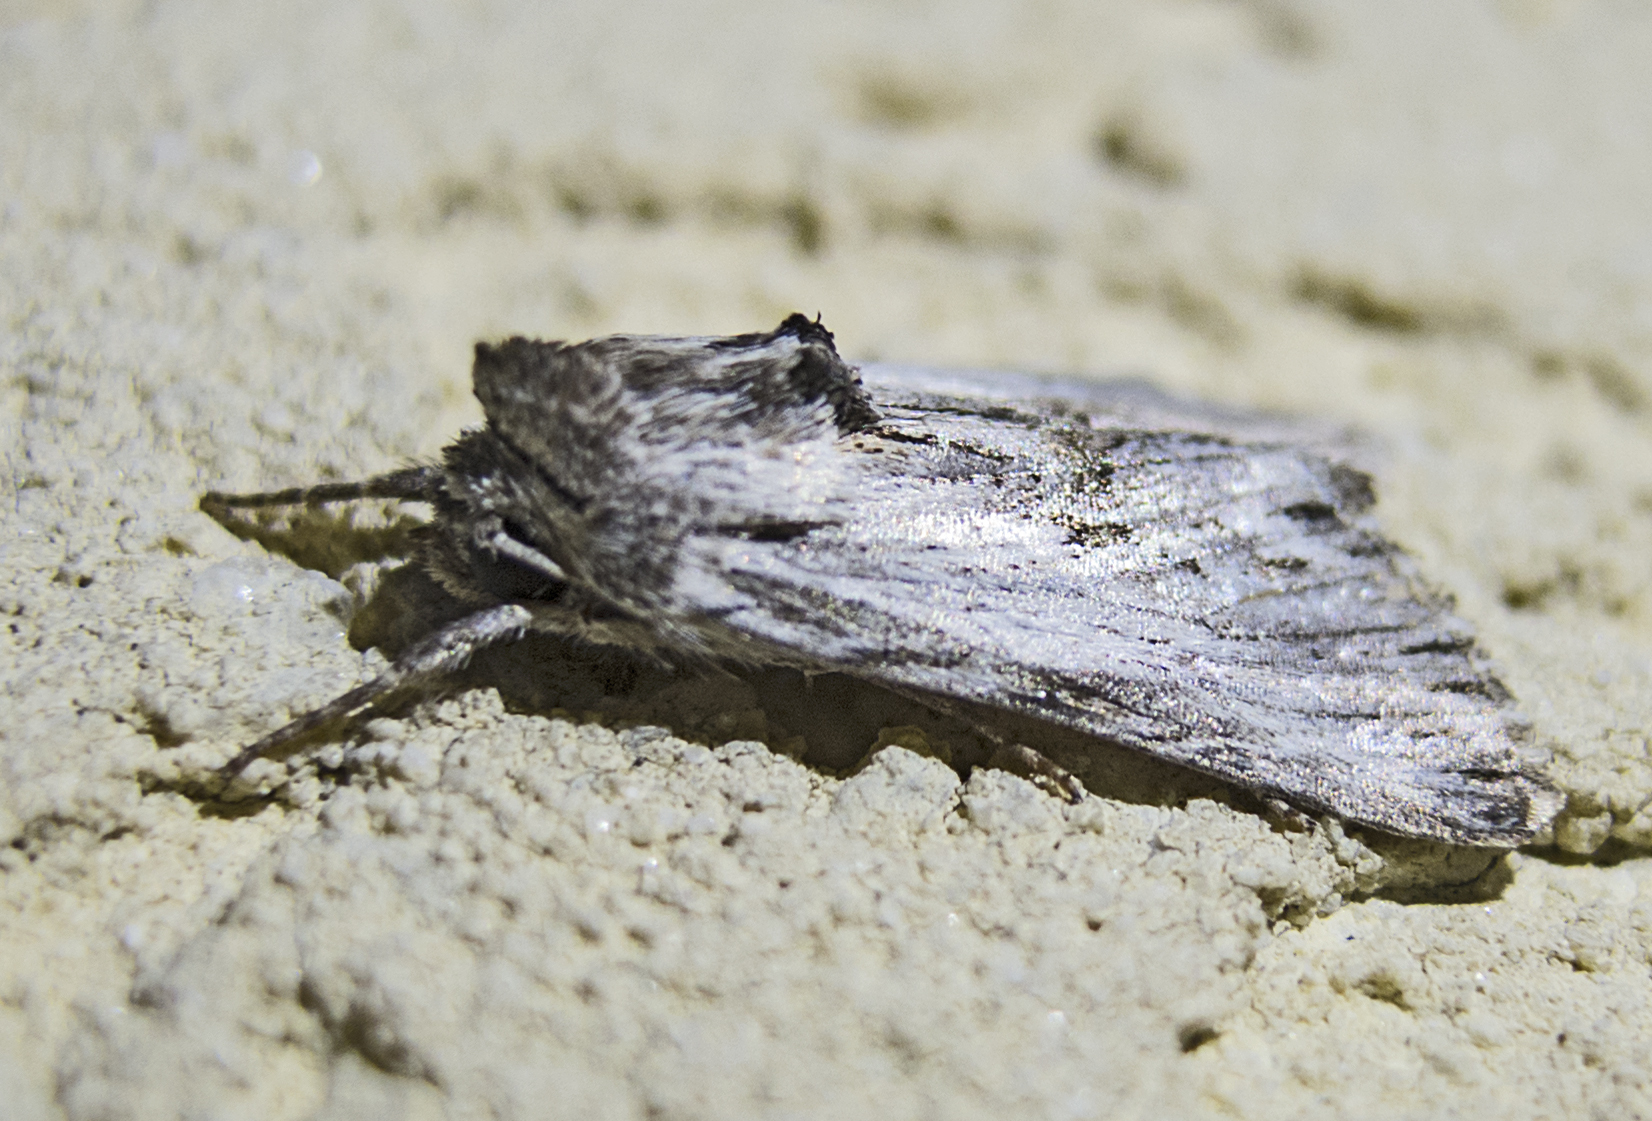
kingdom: Animalia
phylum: Arthropoda
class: Insecta
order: Lepidoptera
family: Noctuidae
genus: Calophasia
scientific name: Calophasia platyptera
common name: Antirrhinum brocade
